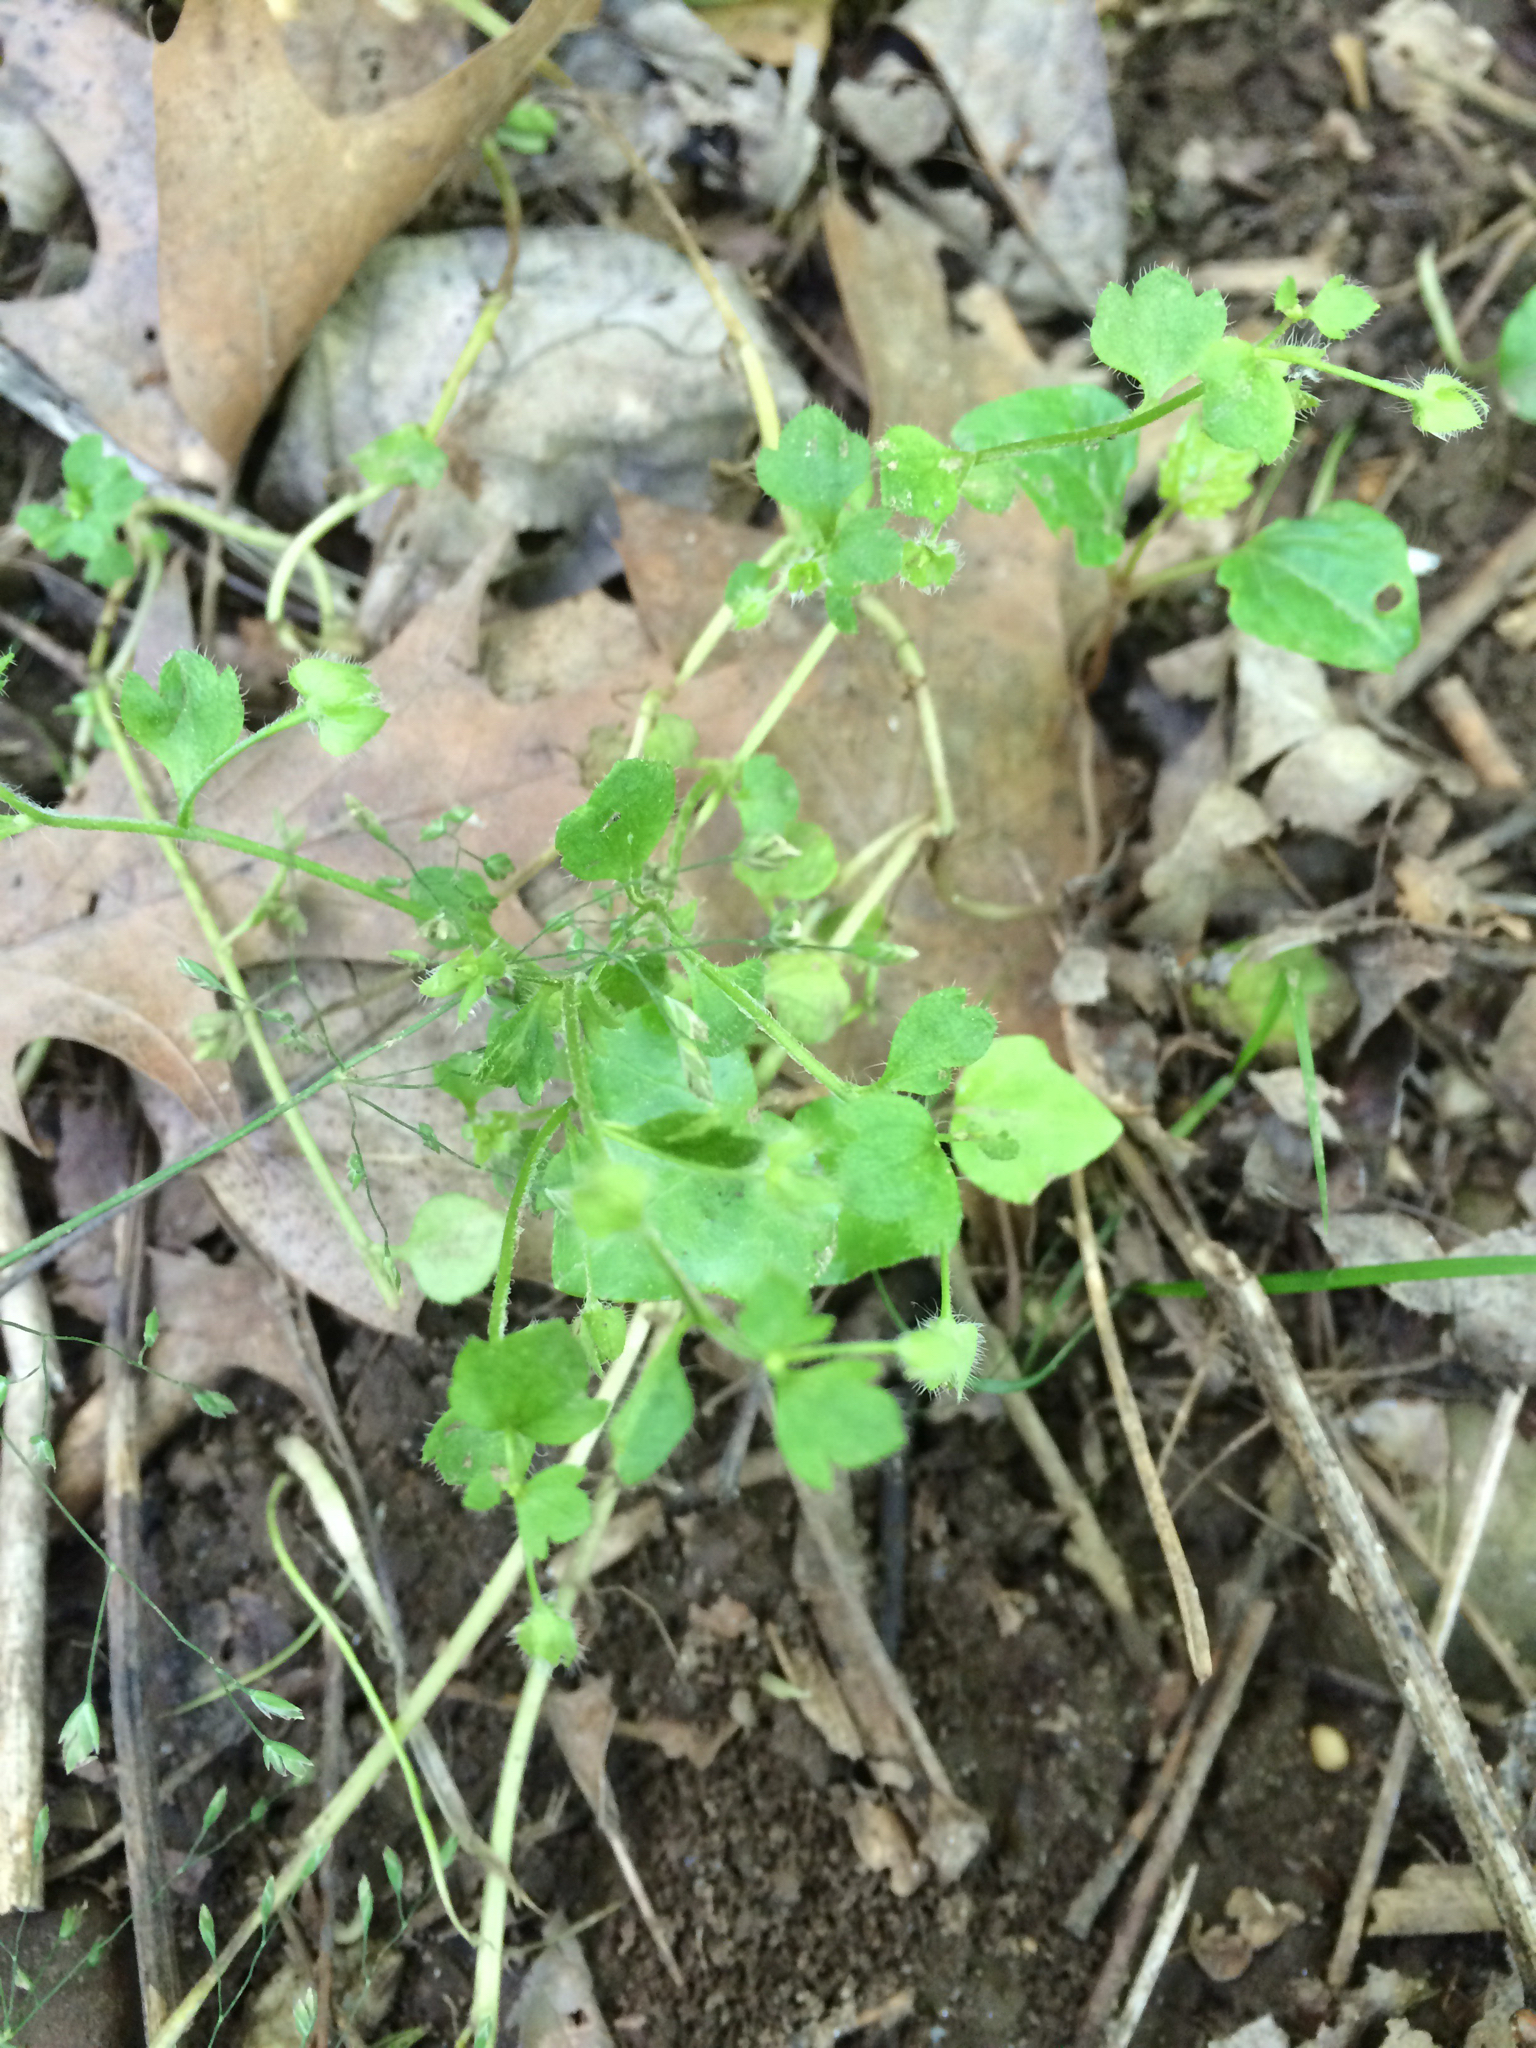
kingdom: Plantae
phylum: Tracheophyta
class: Magnoliopsida
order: Lamiales
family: Plantaginaceae
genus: Veronica
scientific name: Veronica hederifolia
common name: Ivy-leaved speedwell
